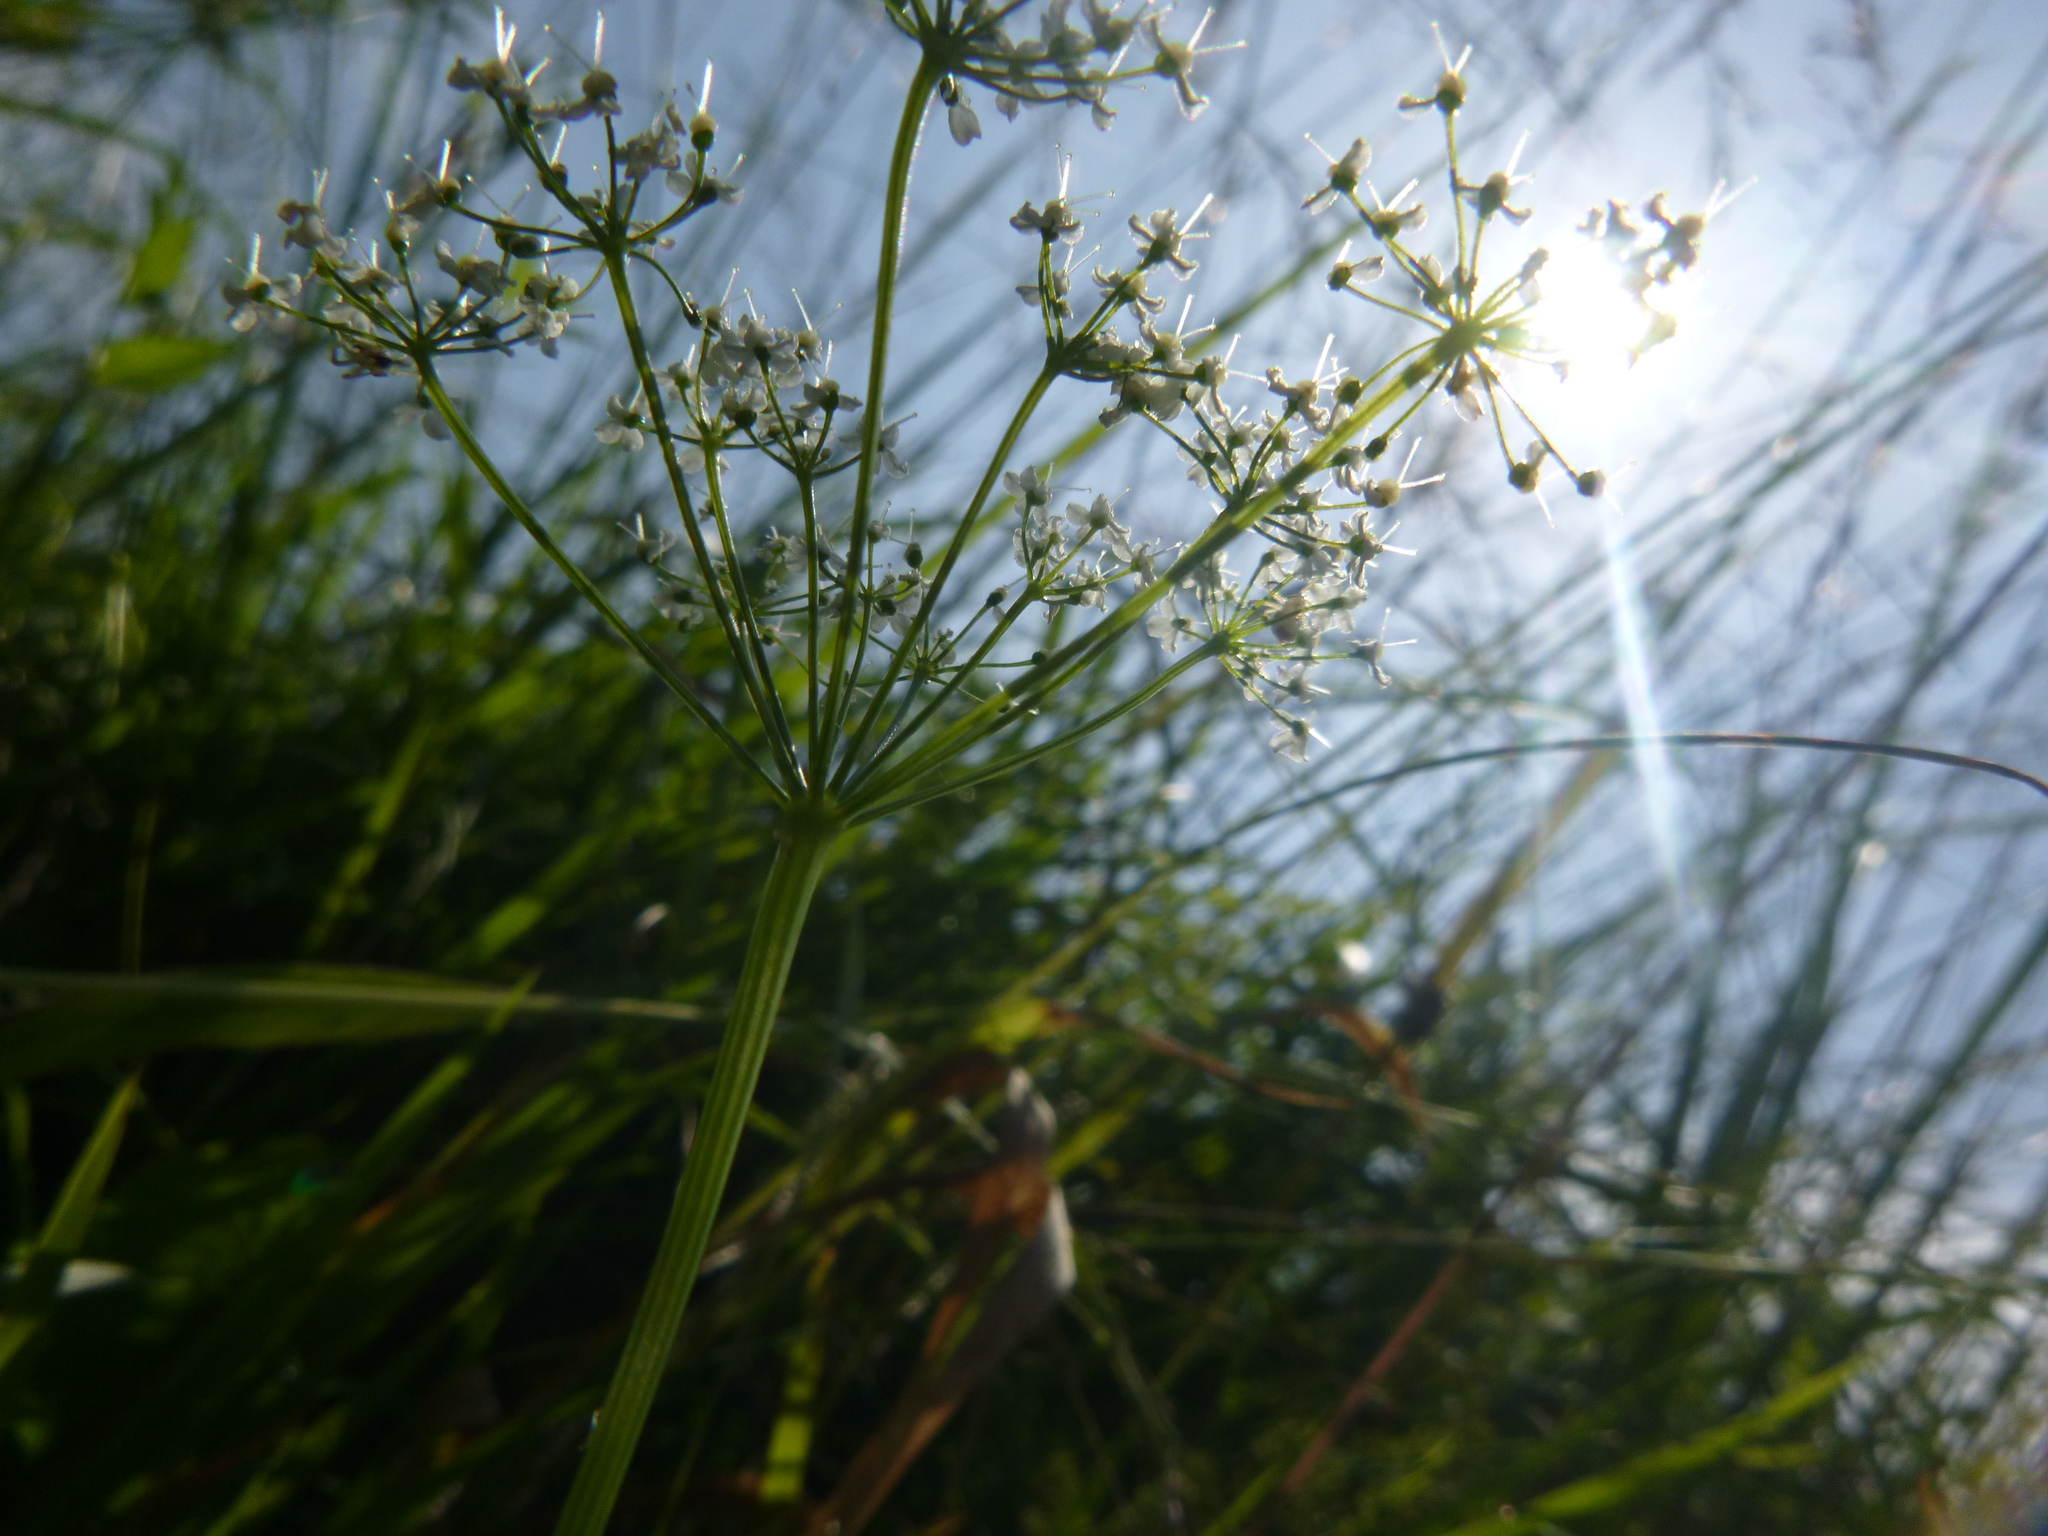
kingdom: Plantae
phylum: Tracheophyta
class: Magnoliopsida
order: Apiales
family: Apiaceae
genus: Pimpinella
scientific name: Pimpinella major
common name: Greater burnet-saxifrage
